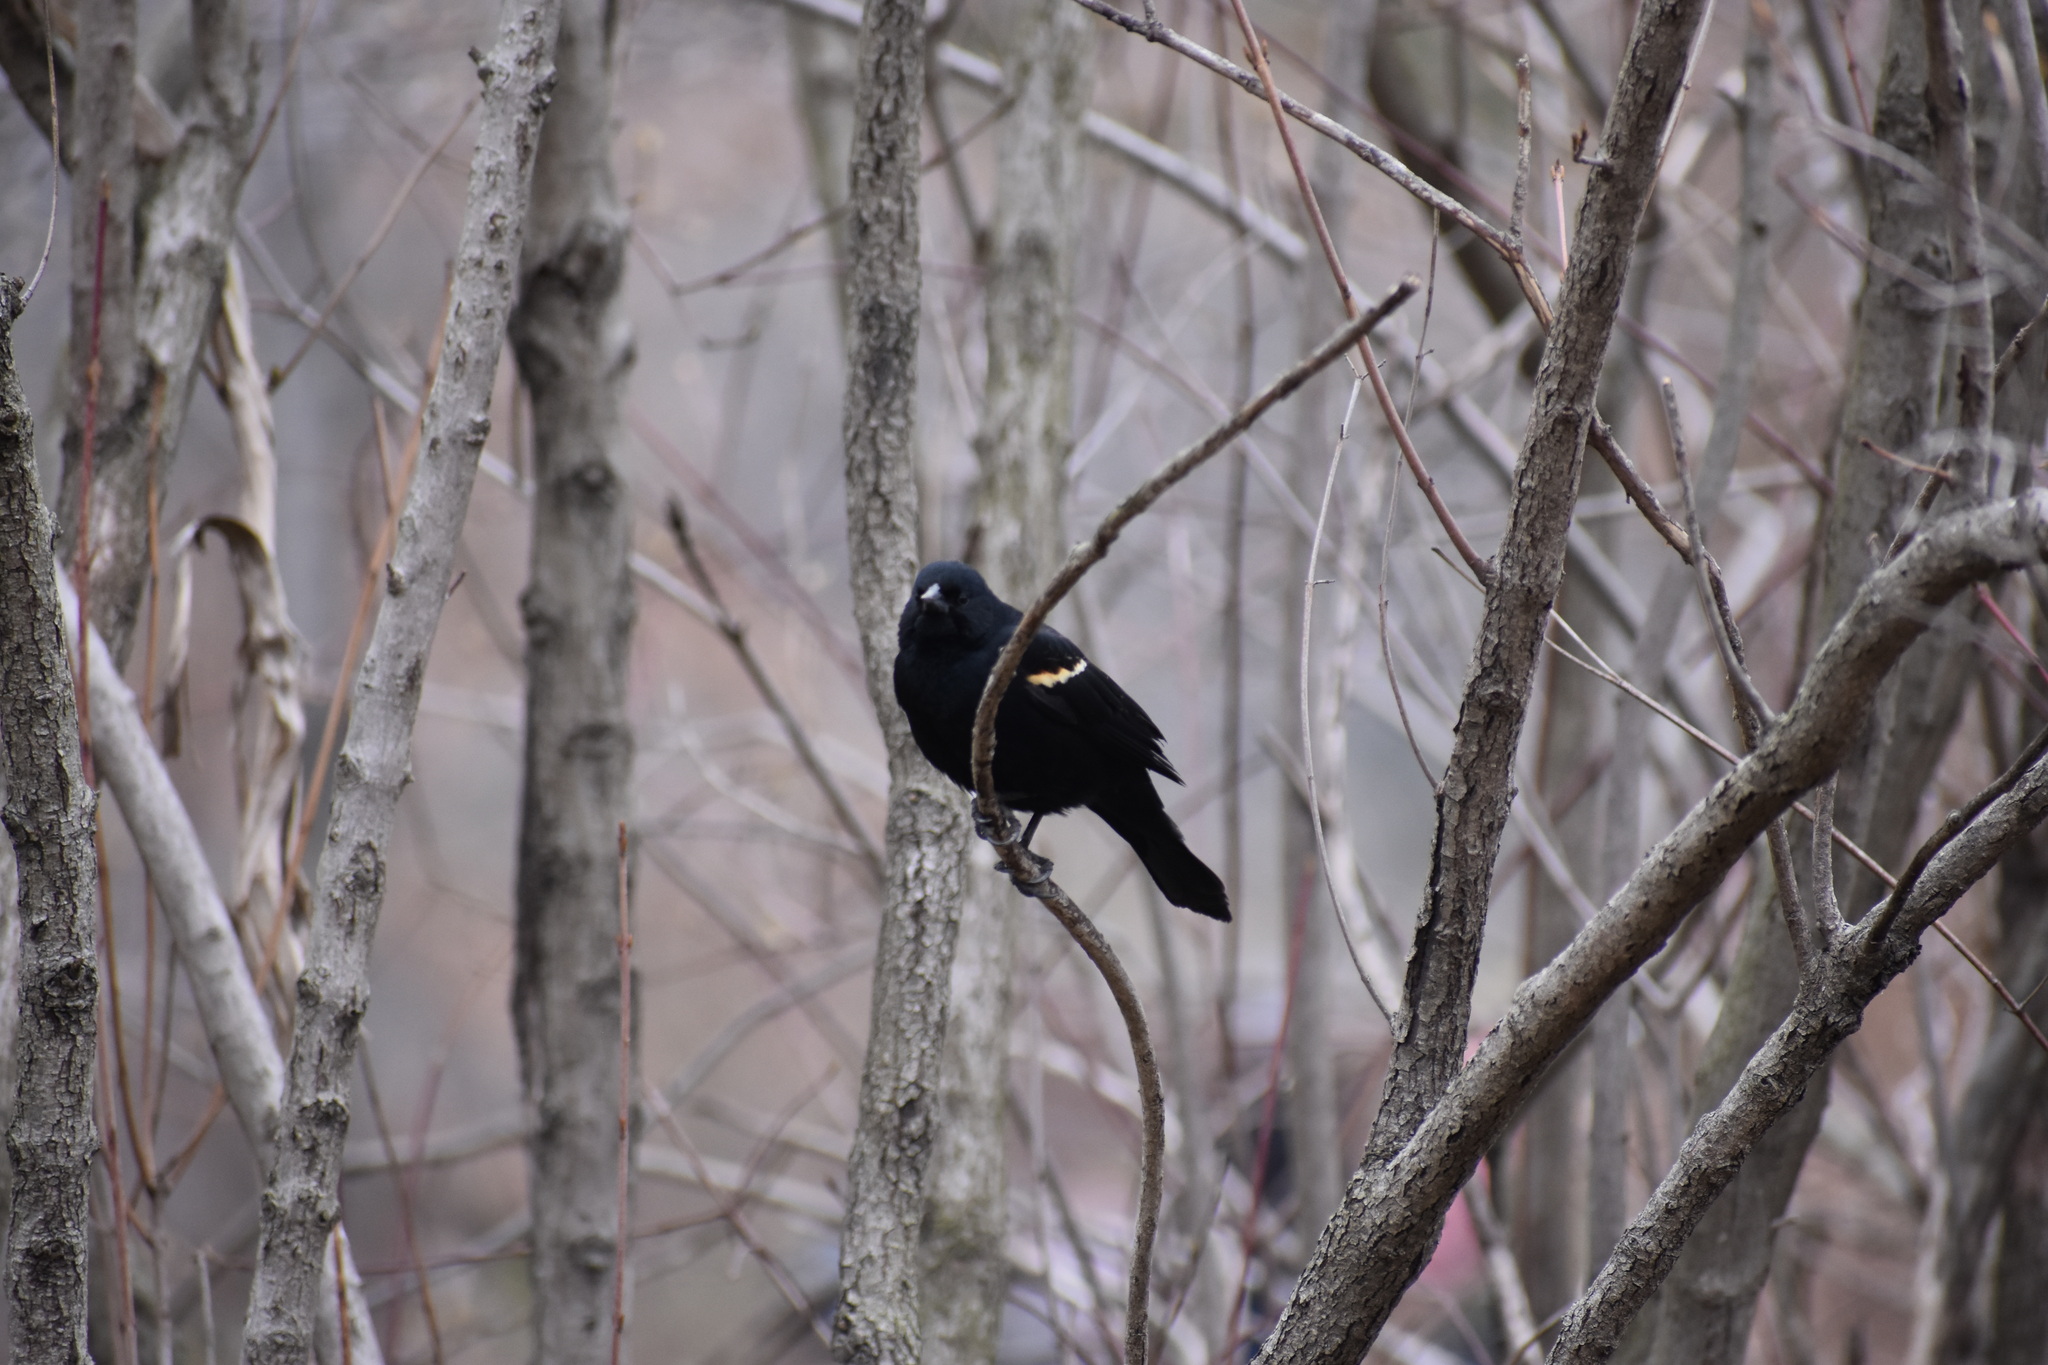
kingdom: Animalia
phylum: Chordata
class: Aves
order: Passeriformes
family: Icteridae
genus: Agelaius
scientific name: Agelaius phoeniceus
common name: Red-winged blackbird
